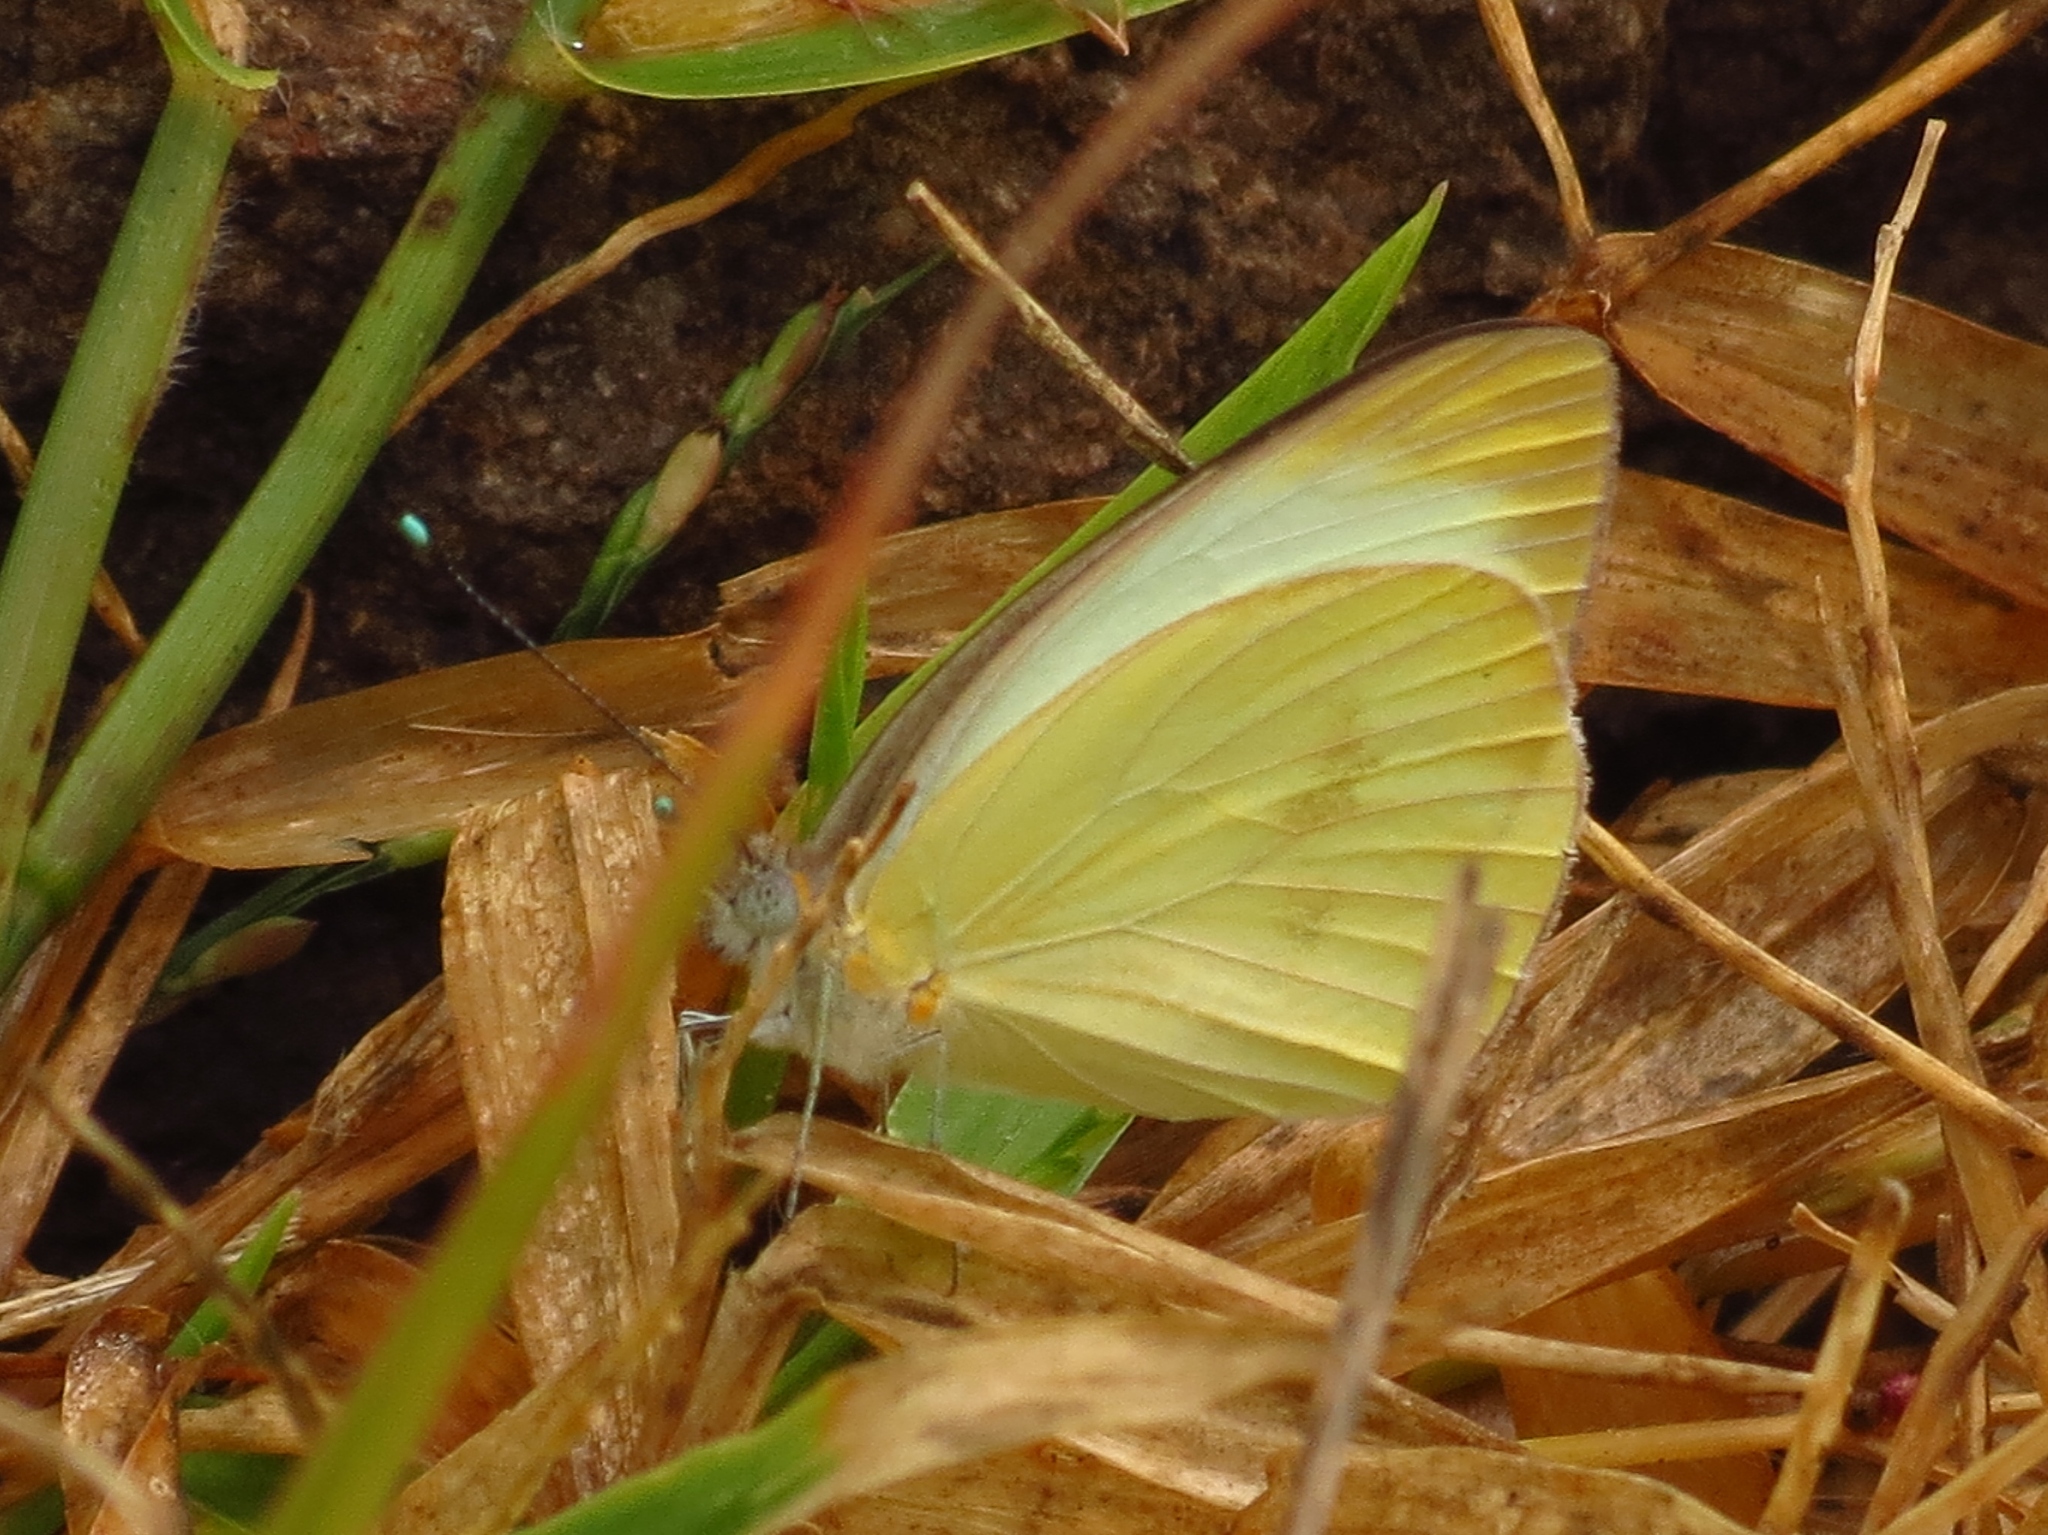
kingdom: Animalia
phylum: Arthropoda
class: Insecta
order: Lepidoptera
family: Pieridae
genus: Ascia
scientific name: Ascia monuste
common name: Great southern white
